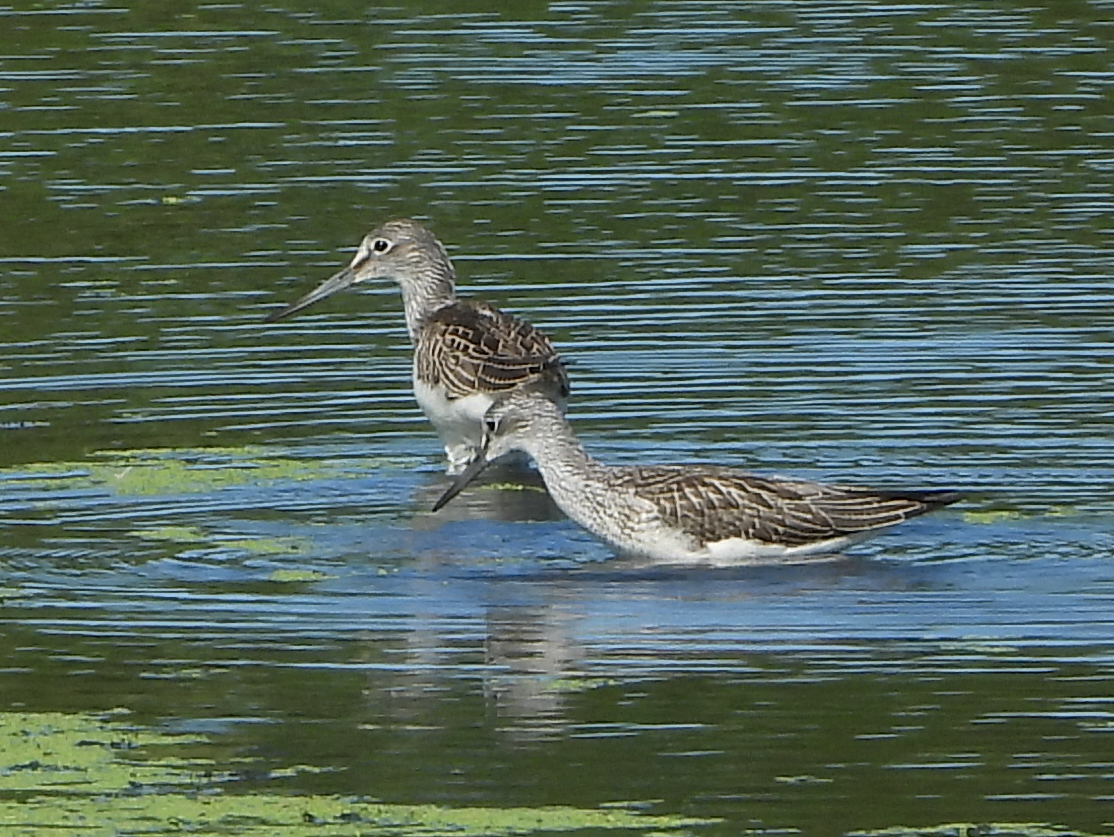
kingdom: Animalia
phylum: Chordata
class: Aves
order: Charadriiformes
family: Scolopacidae
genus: Tringa
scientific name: Tringa nebularia
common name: Common greenshank
